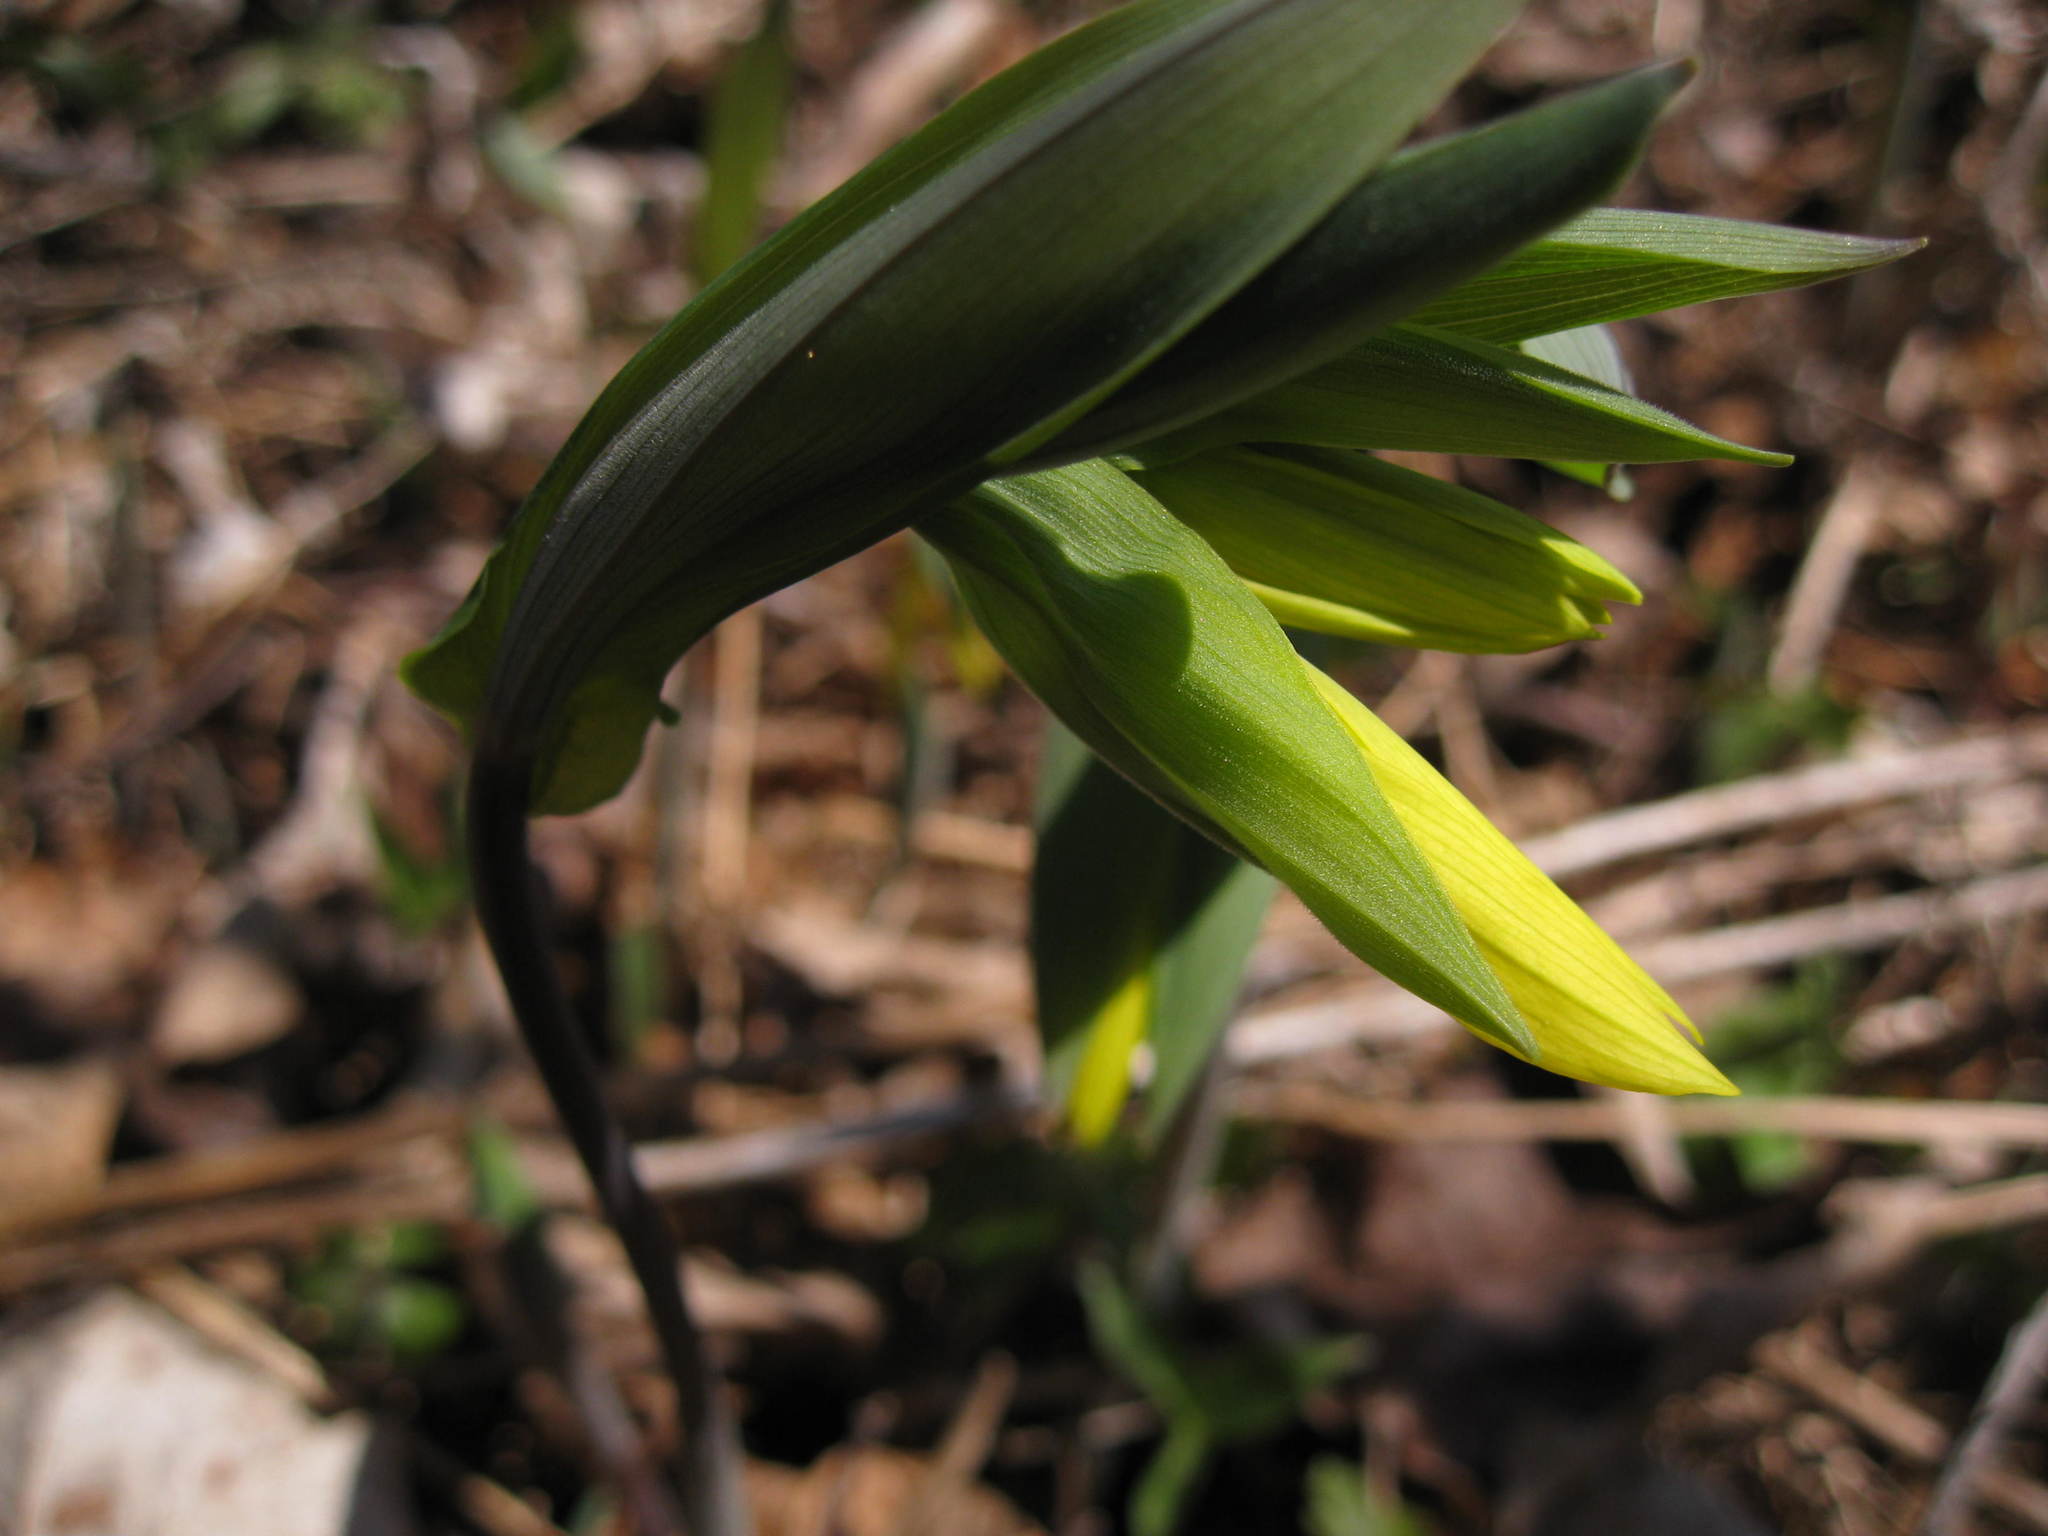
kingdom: Plantae
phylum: Tracheophyta
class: Liliopsida
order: Liliales
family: Colchicaceae
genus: Uvularia
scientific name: Uvularia grandiflora
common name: Bellwort
